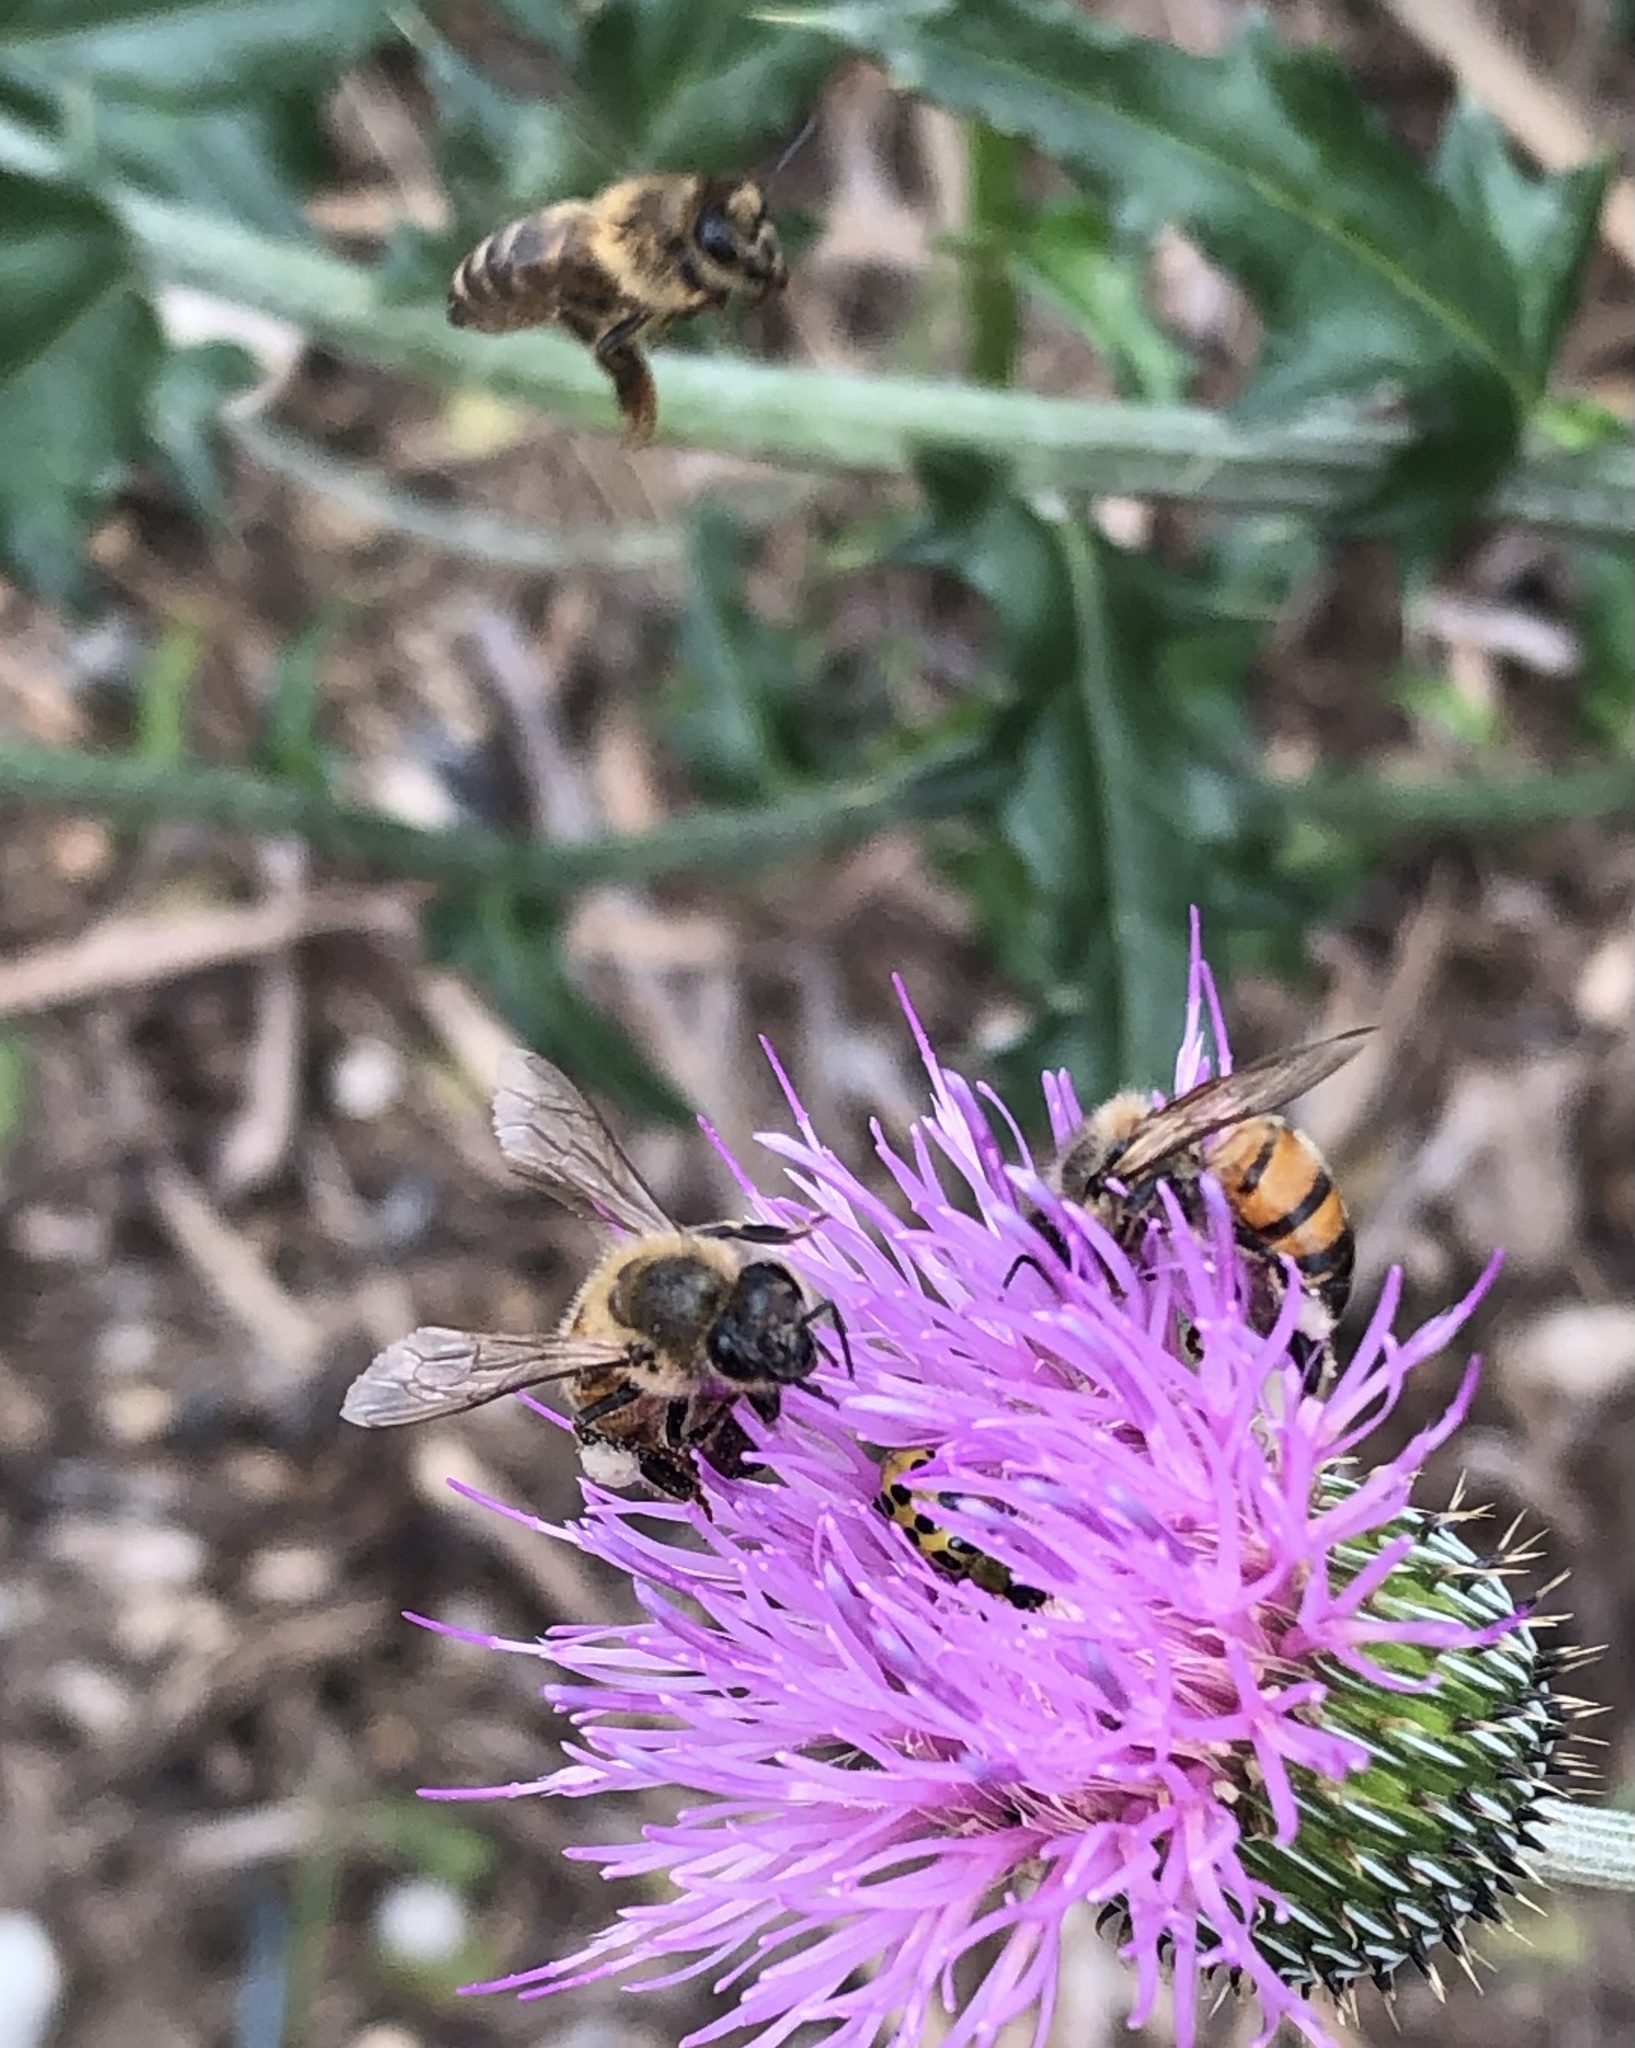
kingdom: Animalia
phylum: Arthropoda
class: Insecta
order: Hymenoptera
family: Apidae
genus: Apis
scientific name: Apis mellifera
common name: Honey bee
